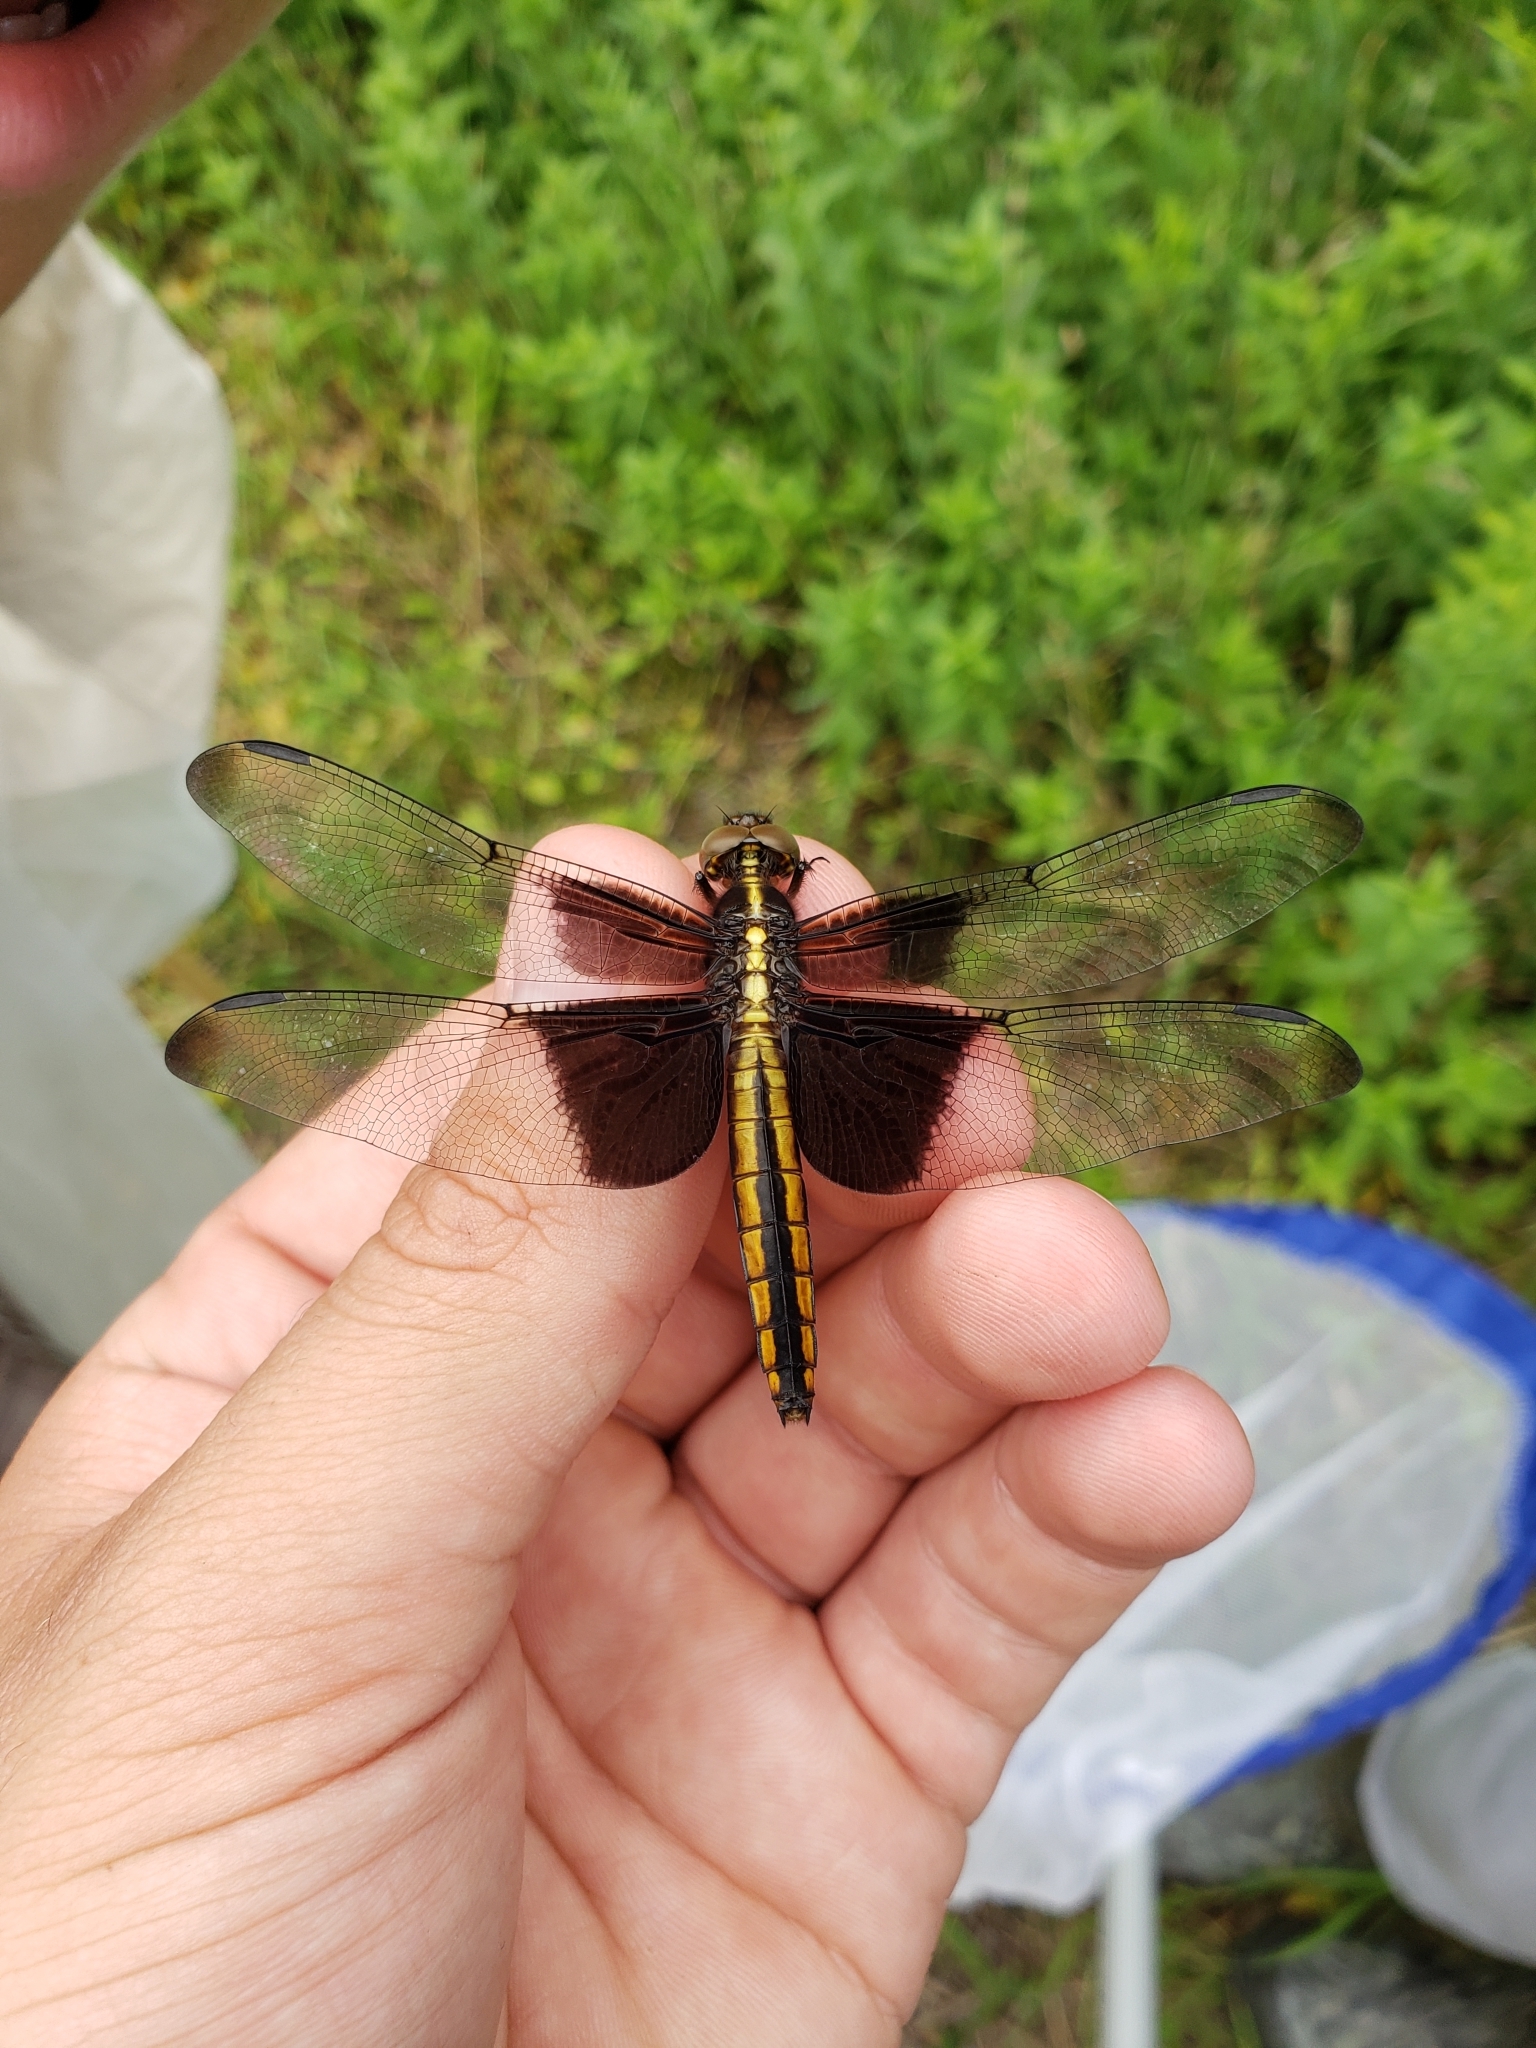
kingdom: Animalia
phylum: Arthropoda
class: Insecta
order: Odonata
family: Libellulidae
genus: Libellula
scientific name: Libellula luctuosa
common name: Widow skimmer
